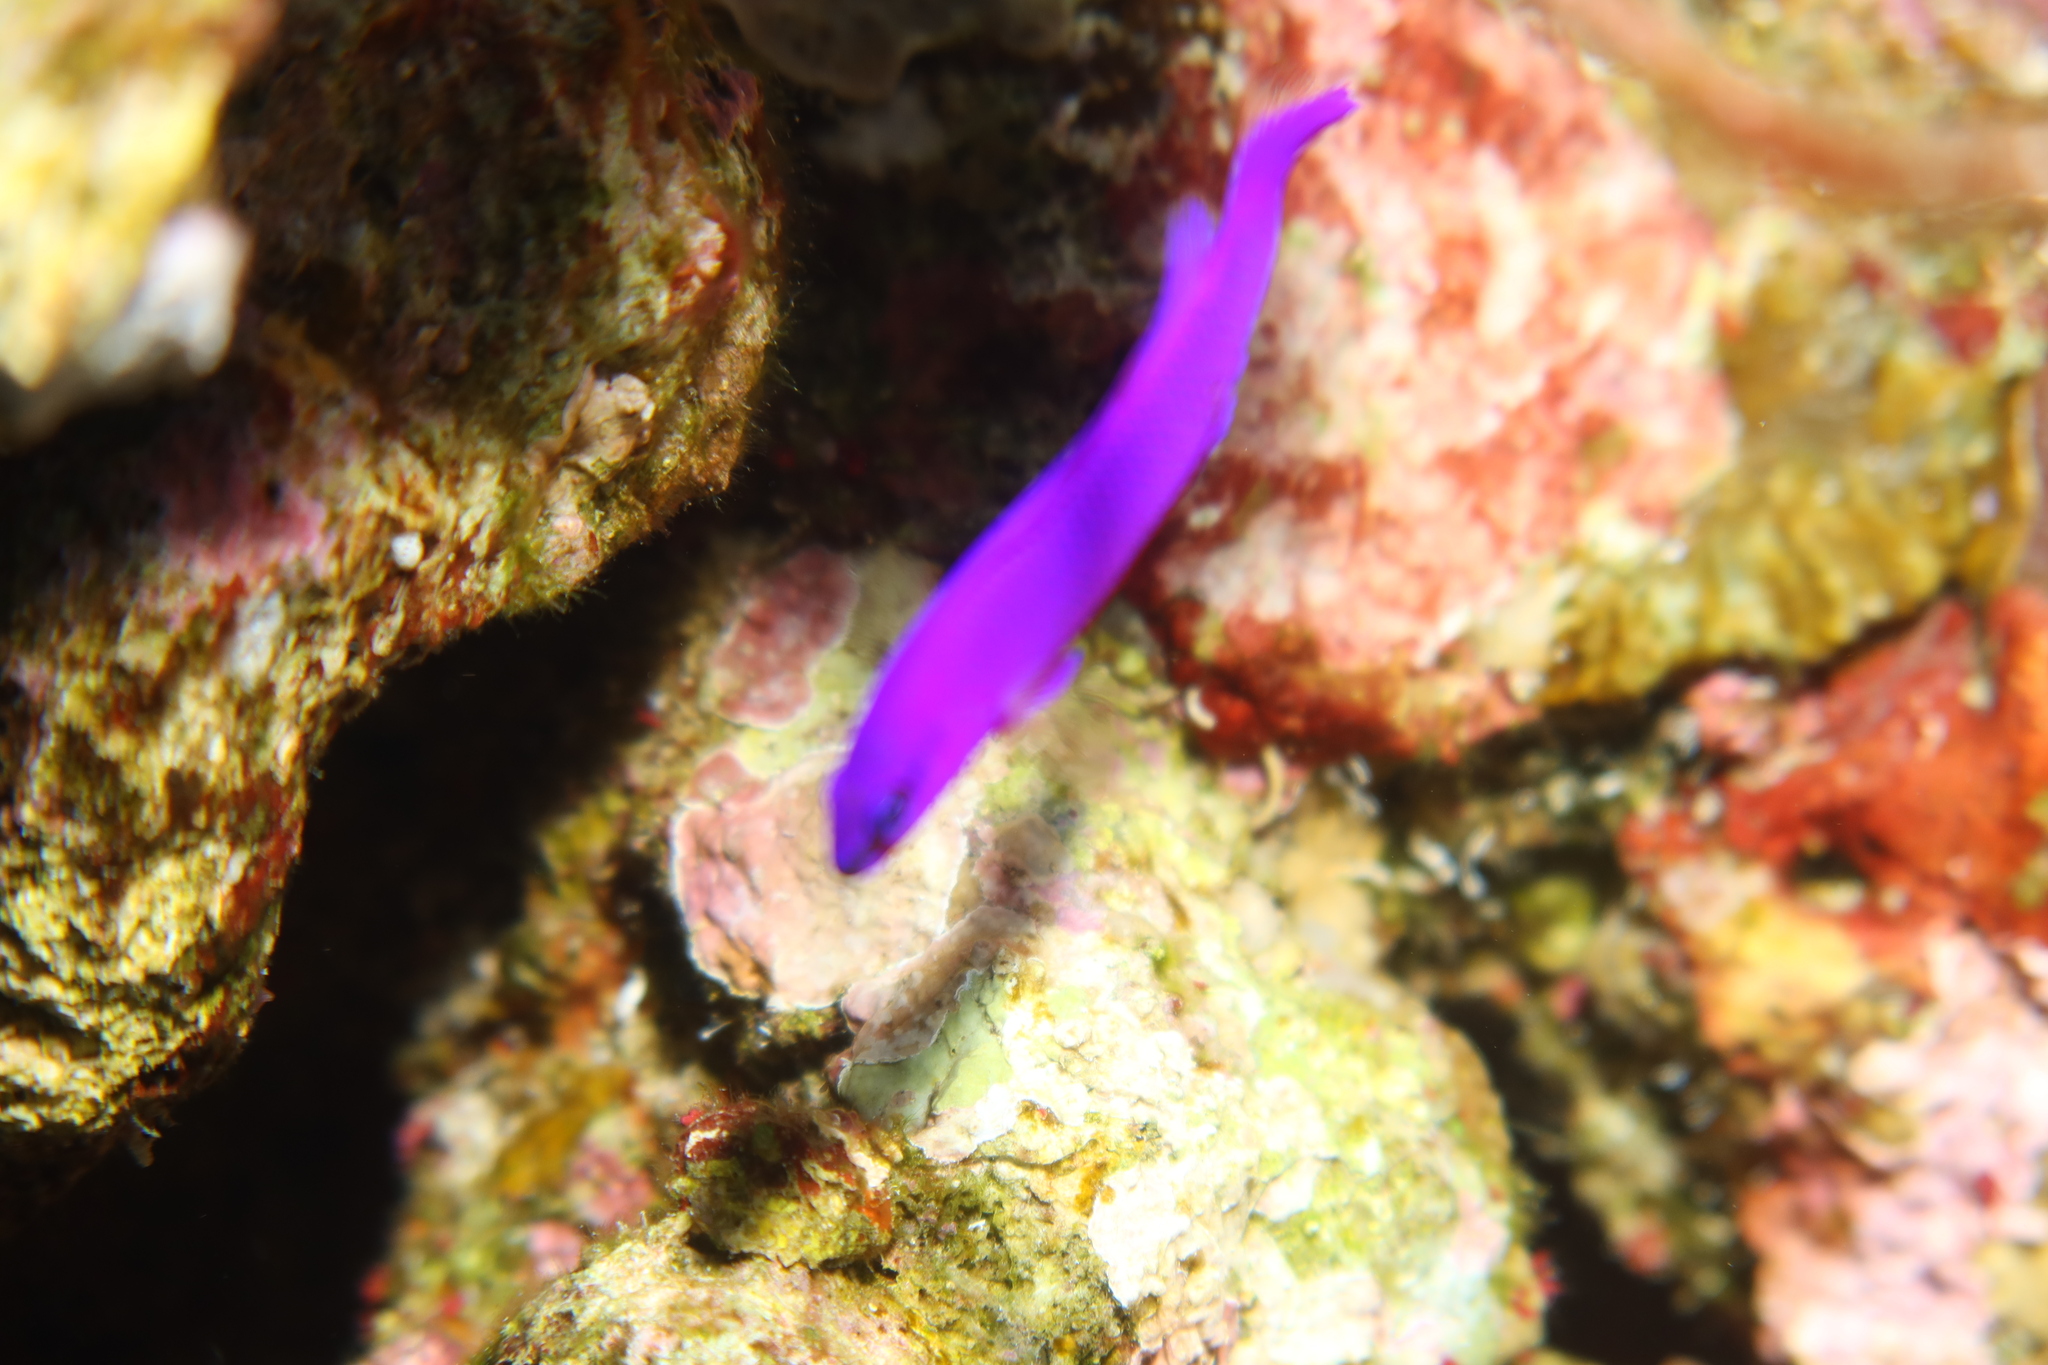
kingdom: Animalia
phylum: Chordata
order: Perciformes
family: Pseudochromidae
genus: Pseudochromis
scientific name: Pseudochromis fridmani
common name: Orchid dottyback
